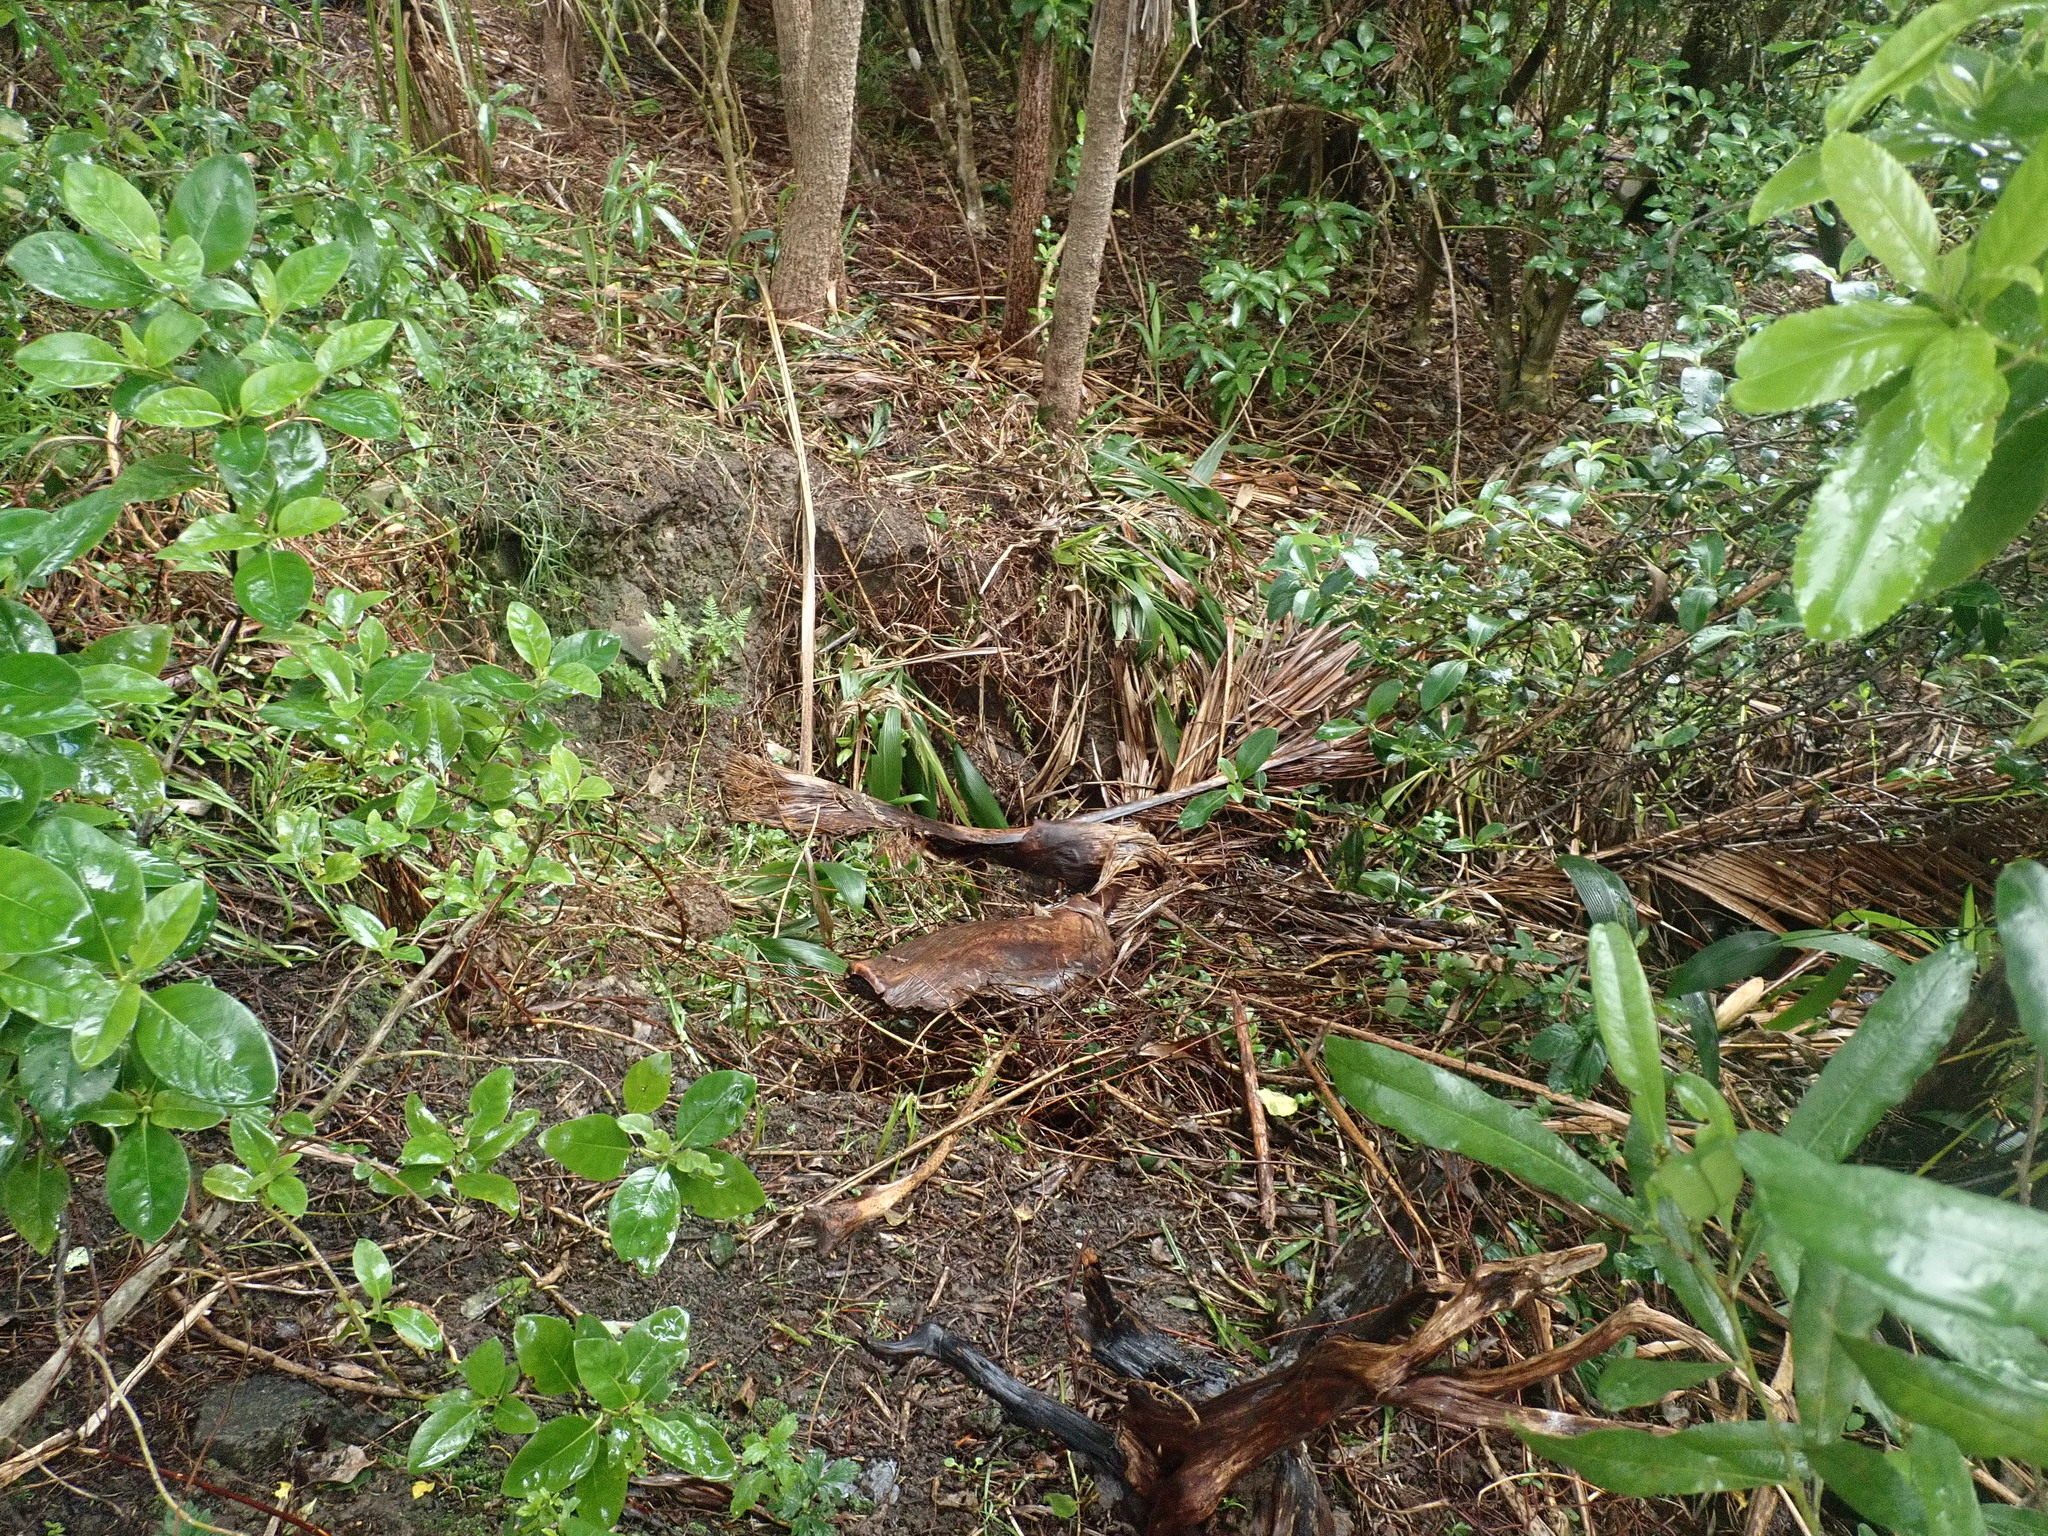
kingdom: Plantae
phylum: Tracheophyta
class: Liliopsida
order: Arecales
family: Arecaceae
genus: Rhopalostylis
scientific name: Rhopalostylis sapida
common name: Feather-duster palm
